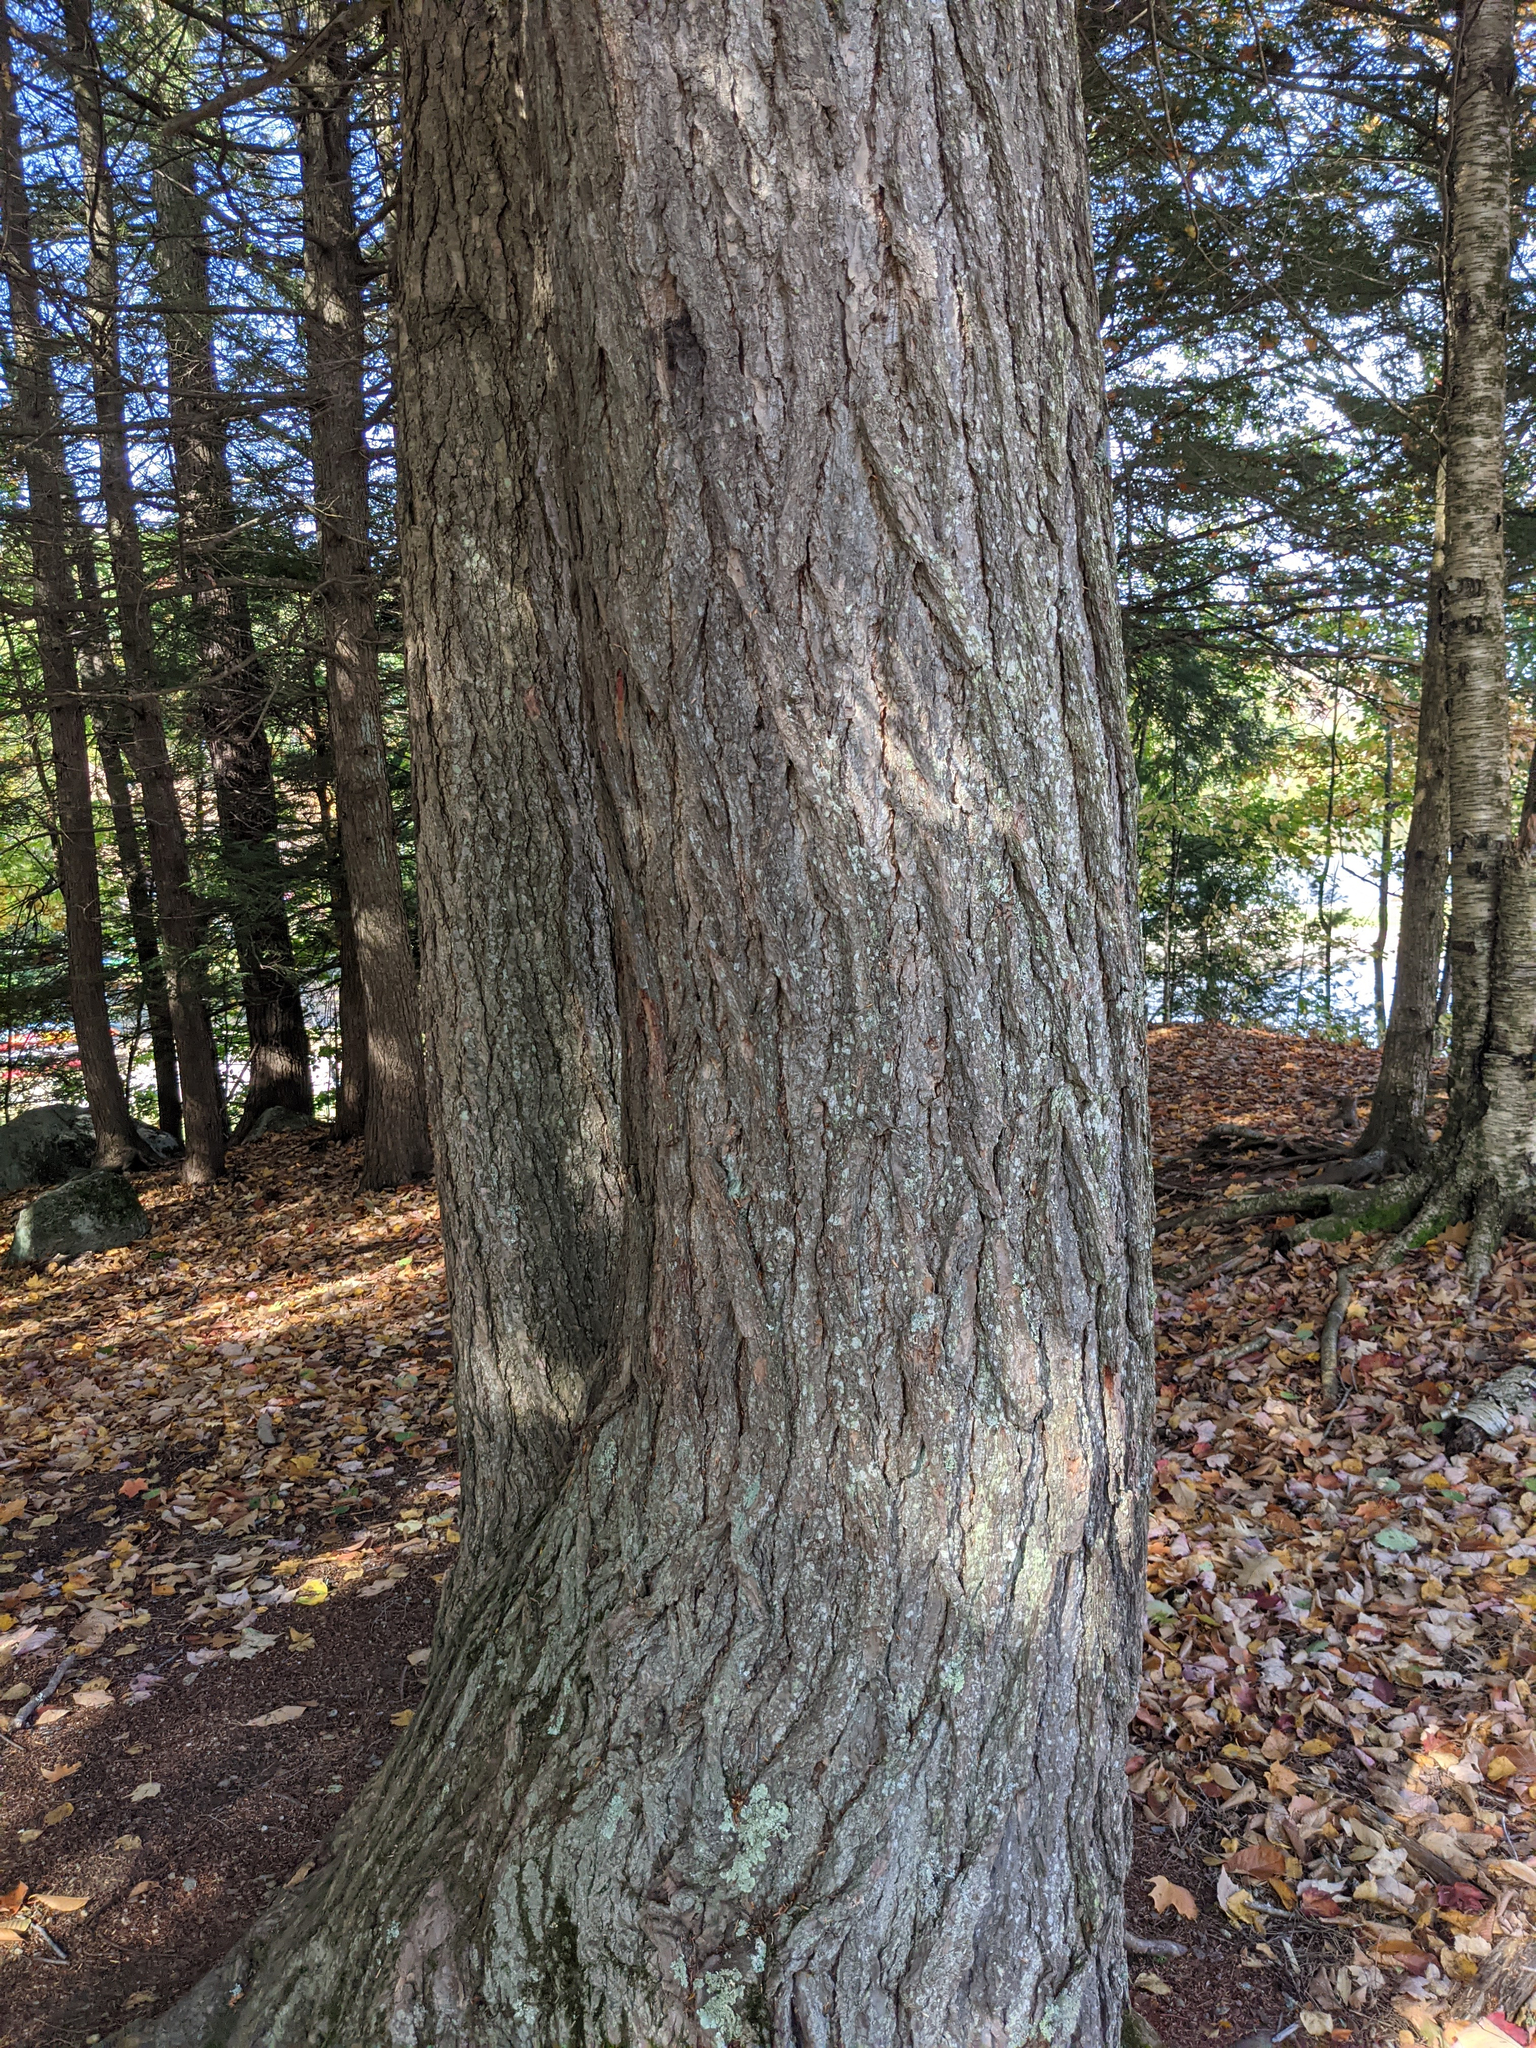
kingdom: Plantae
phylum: Tracheophyta
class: Pinopsida
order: Pinales
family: Pinaceae
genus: Tsuga
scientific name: Tsuga canadensis
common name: Eastern hemlock
